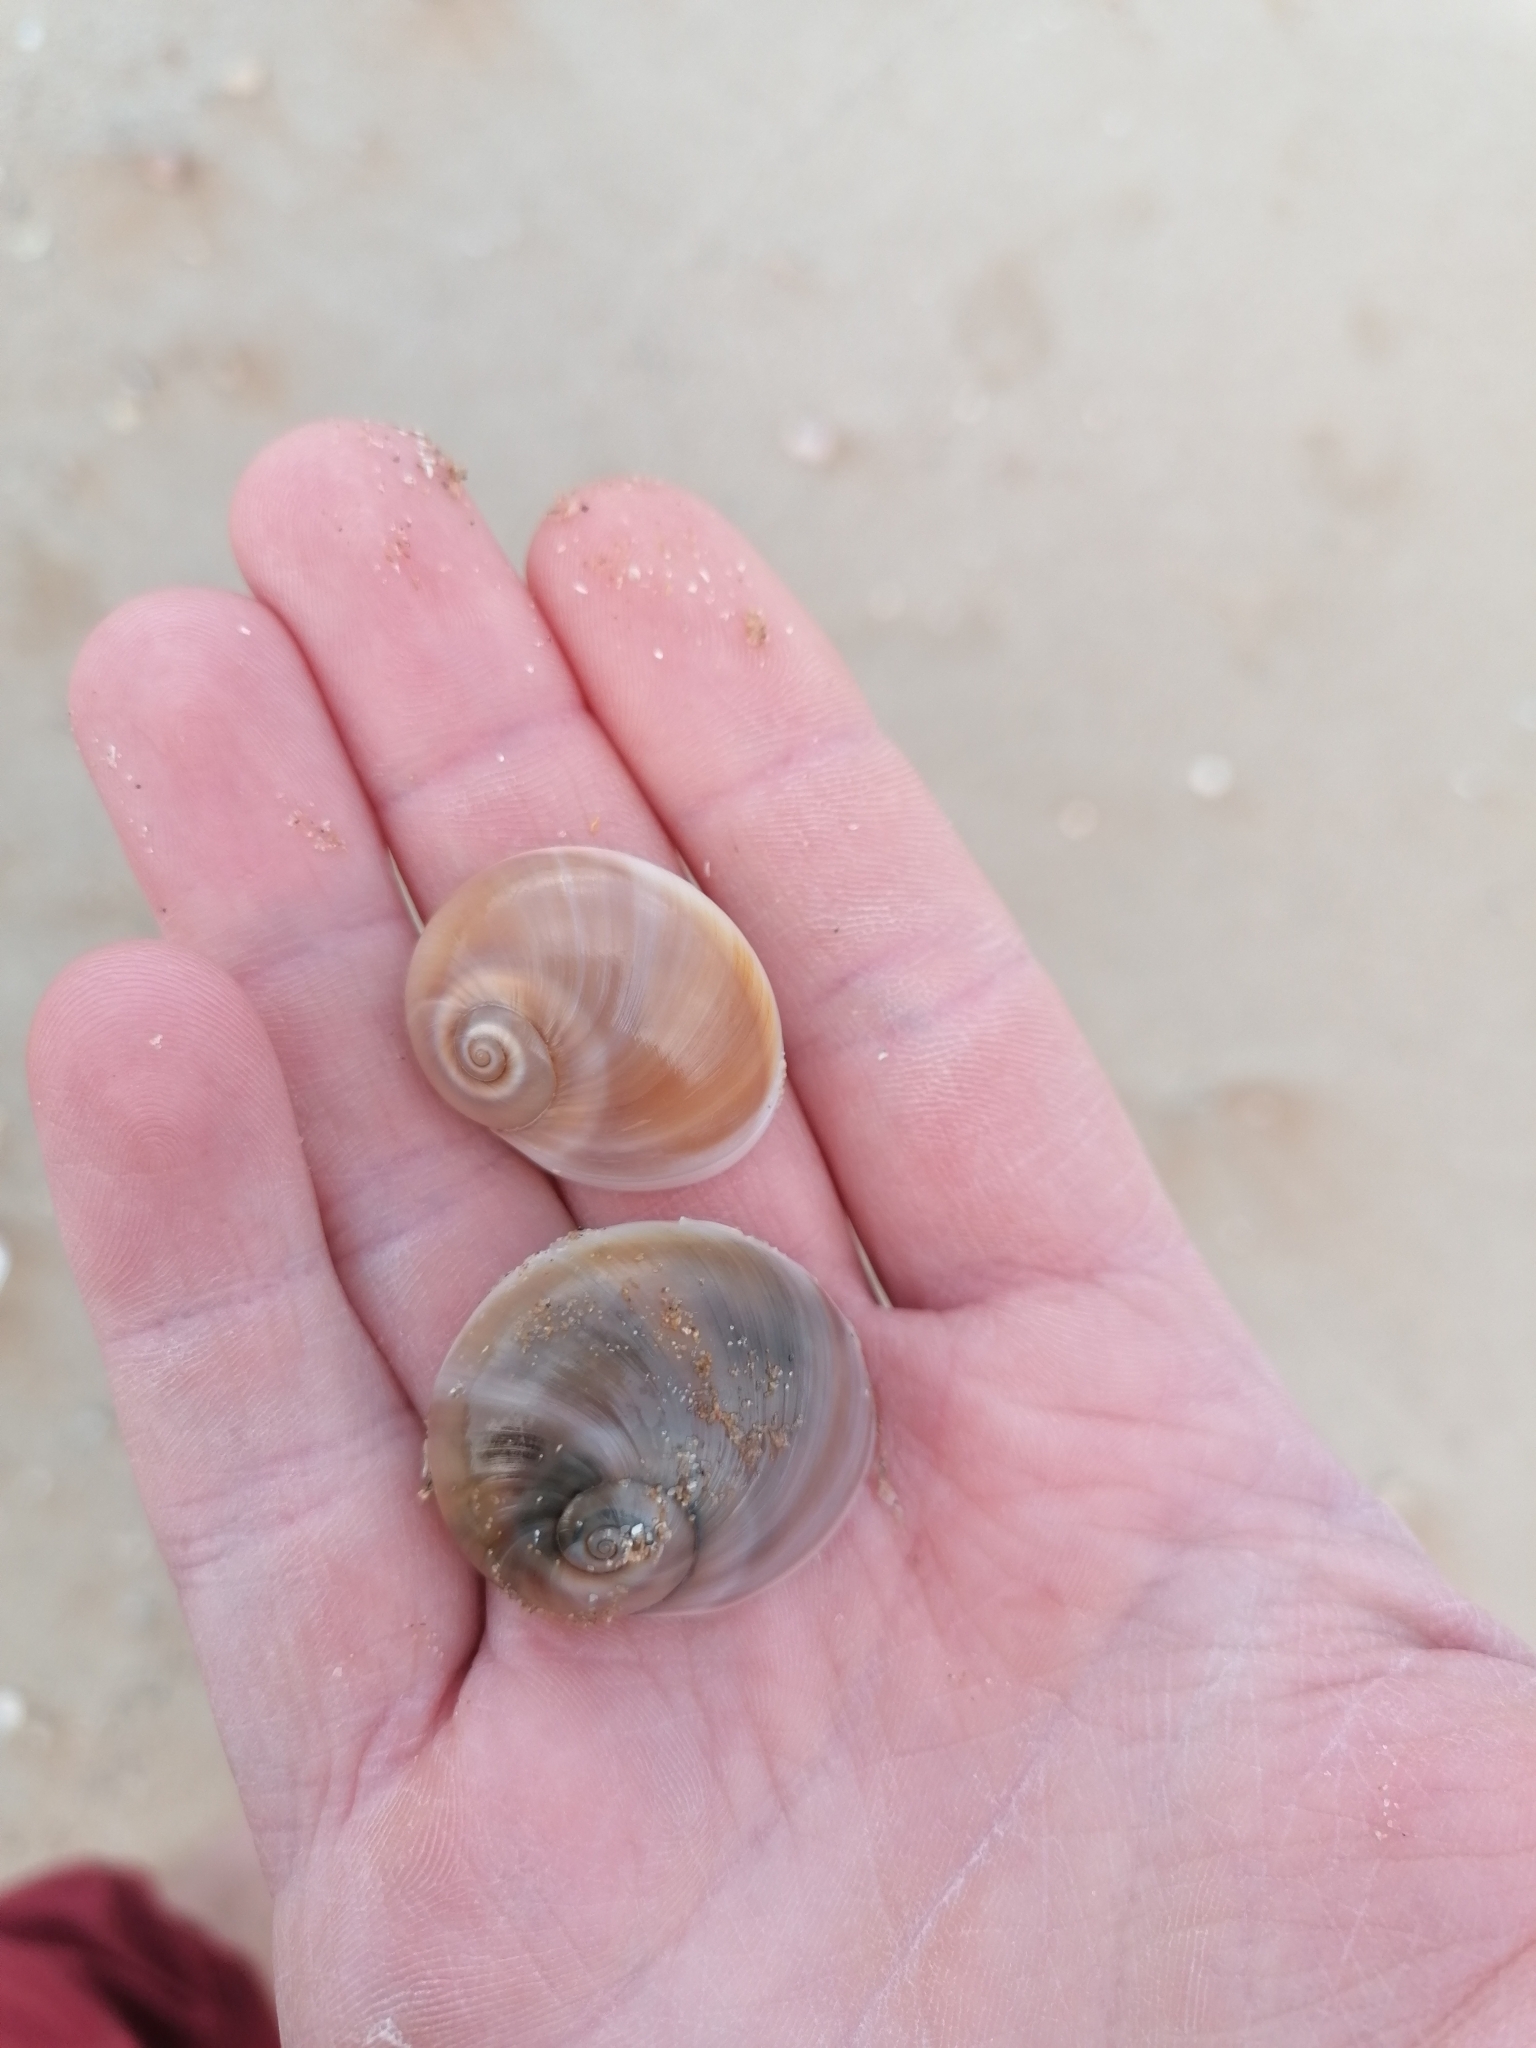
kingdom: Animalia
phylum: Mollusca
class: Gastropoda
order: Littorinimorpha
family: Naticidae
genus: Neverita
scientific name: Neverita josephinia
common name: Josephine's moonsnail
